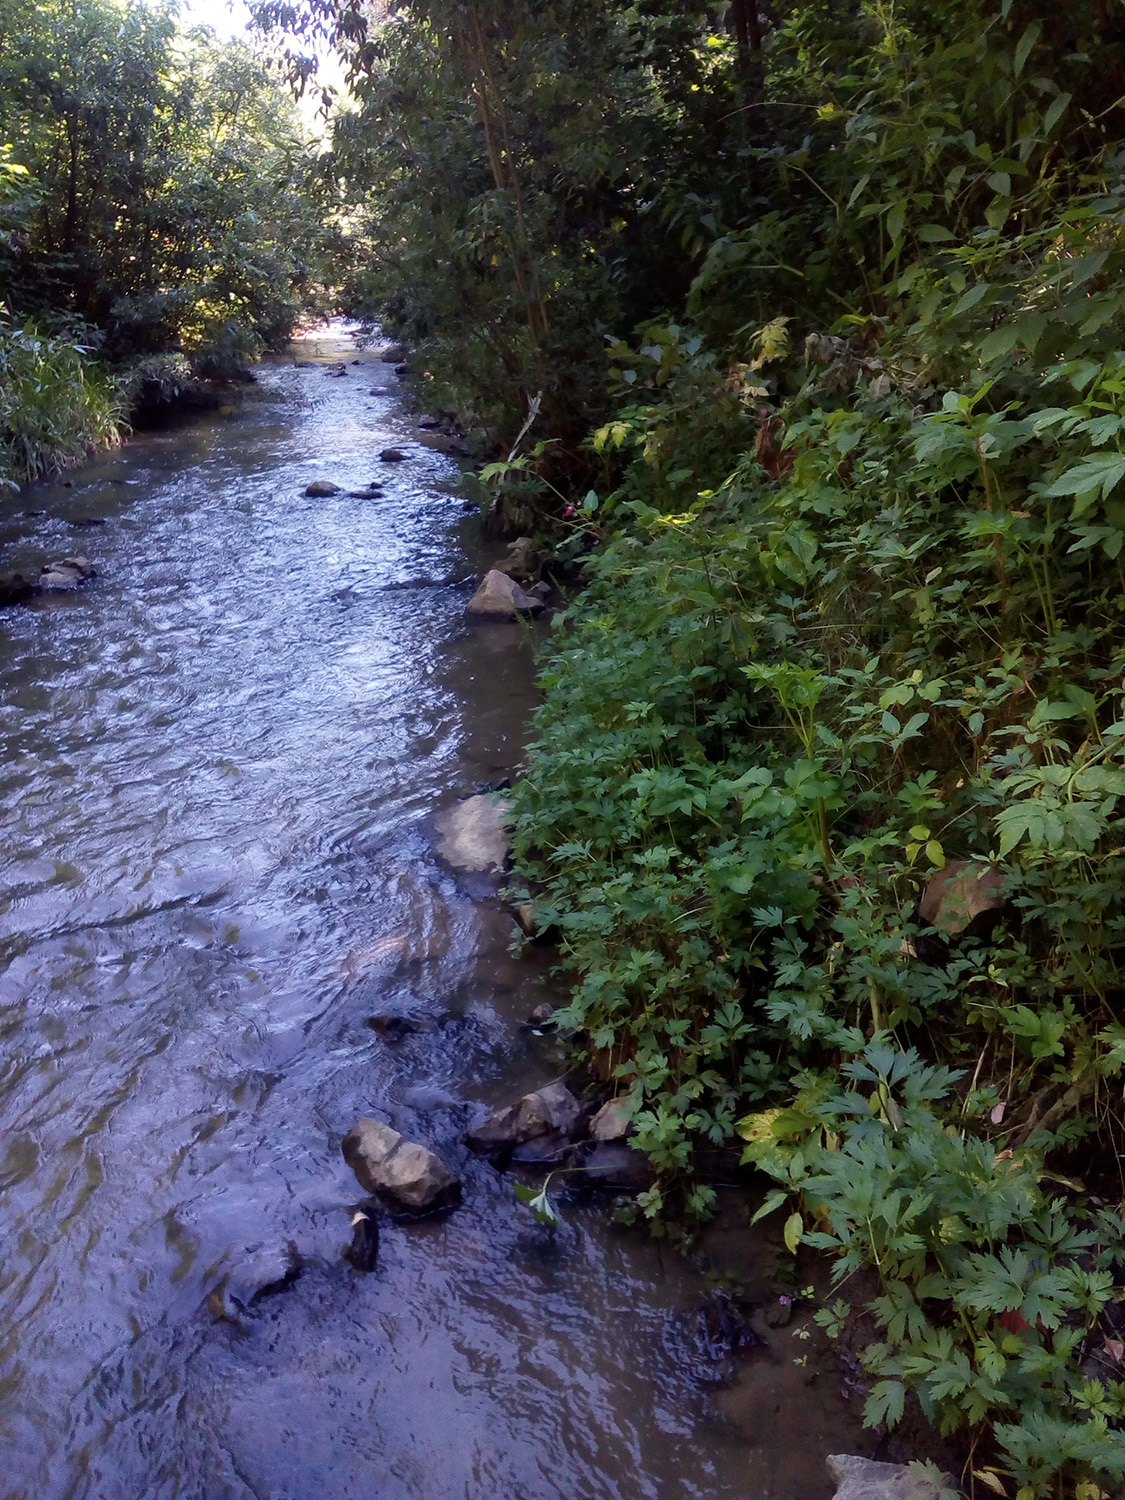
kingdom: Plantae
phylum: Tracheophyta
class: Magnoliopsida
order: Ranunculales
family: Ranunculaceae
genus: Ranunculus
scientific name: Ranunculus repens
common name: Creeping buttercup
